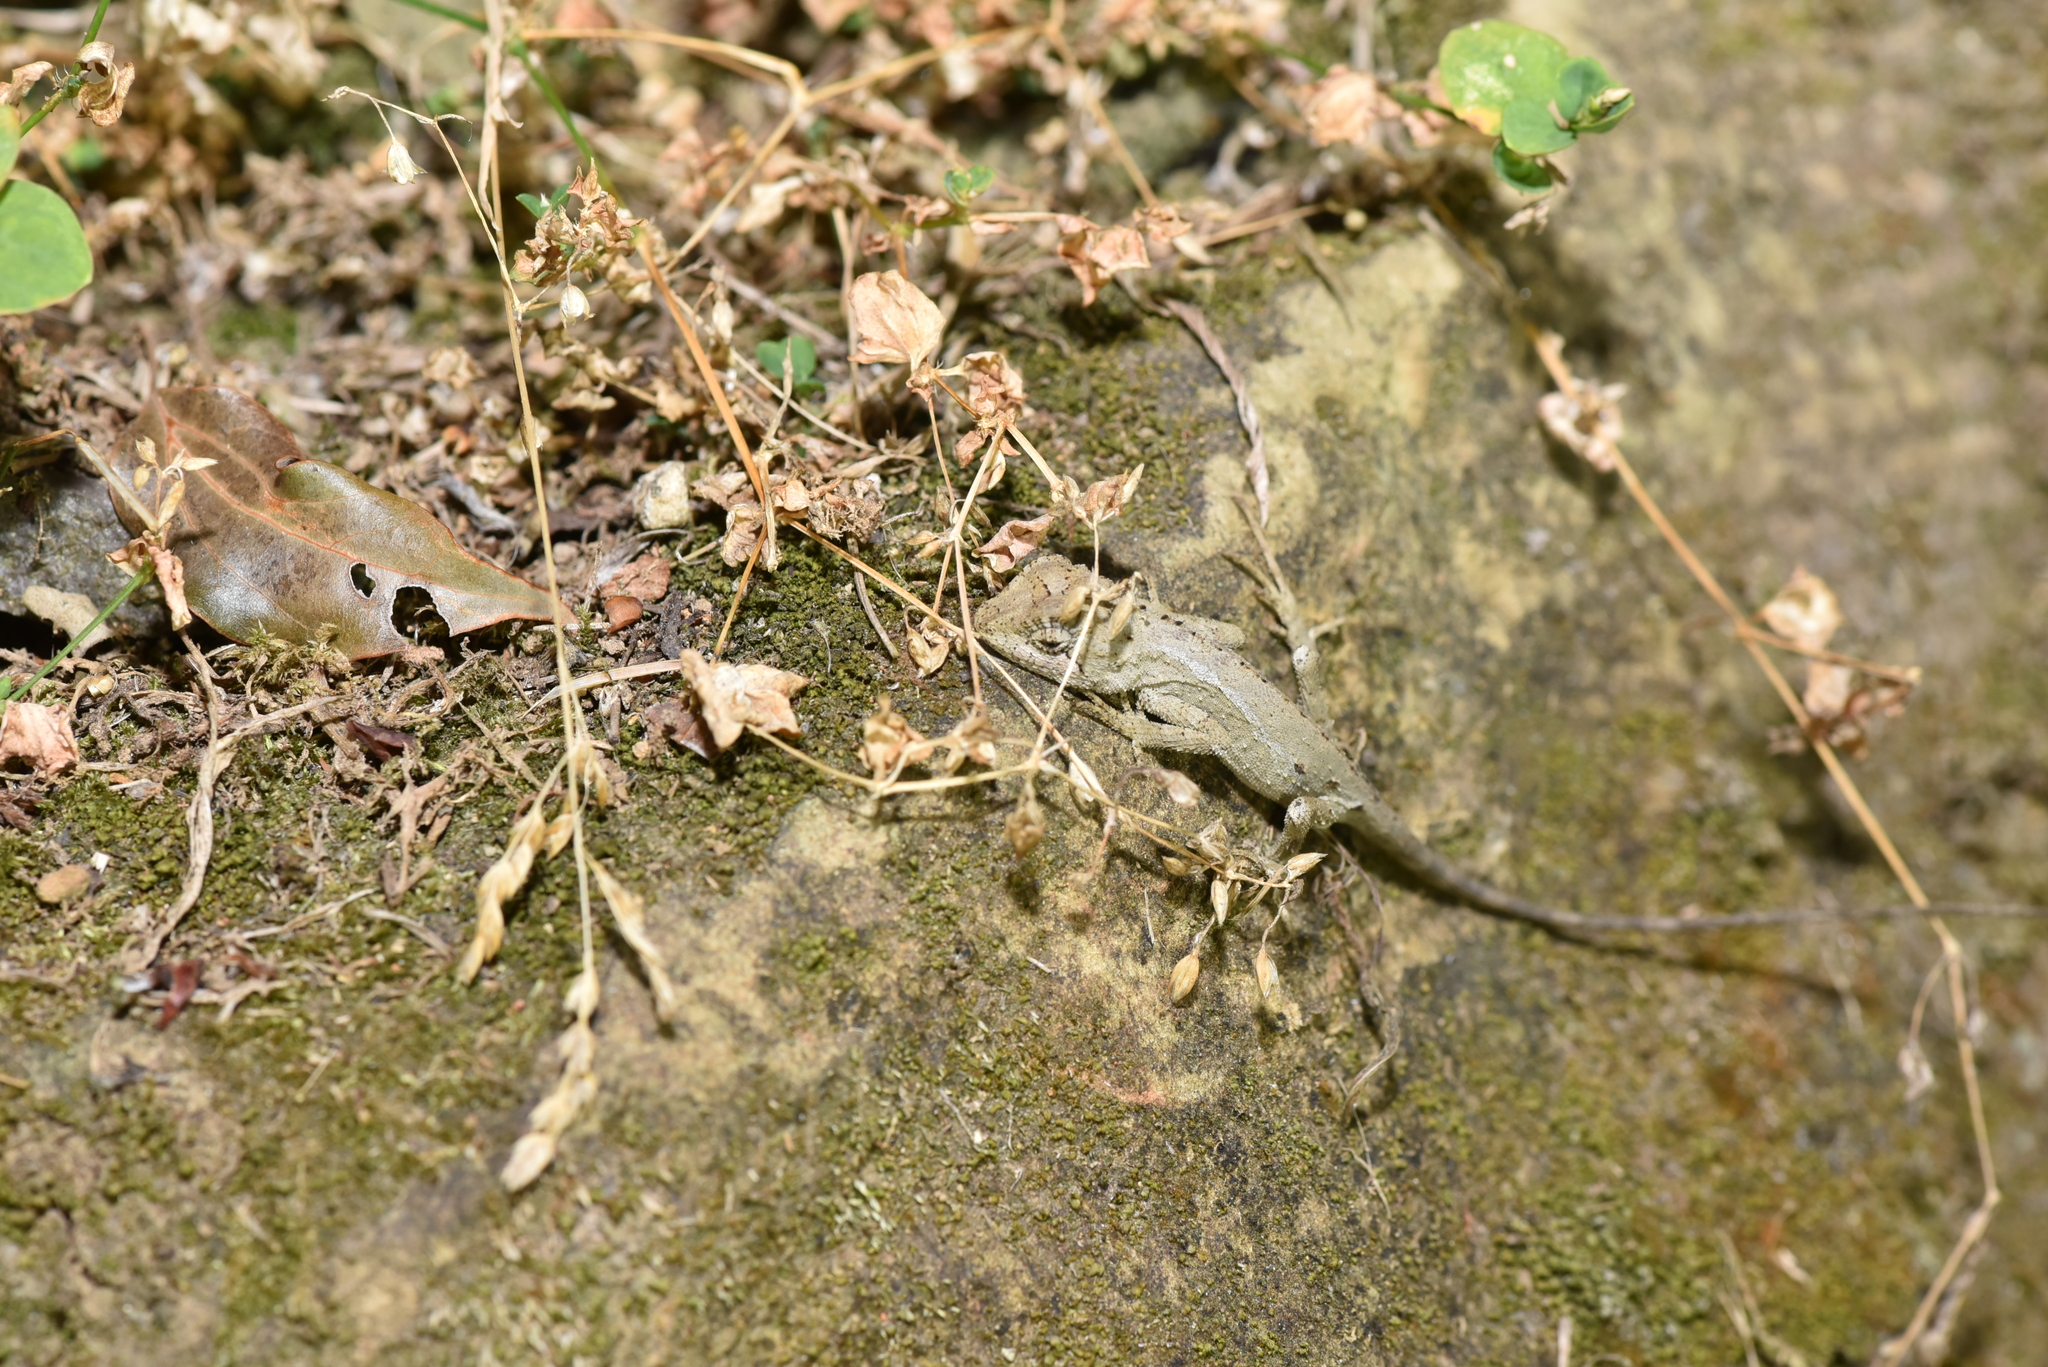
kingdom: Animalia
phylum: Chordata
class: Squamata
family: Agamidae
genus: Diploderma
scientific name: Diploderma swinhonis
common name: Taiwan japalure
